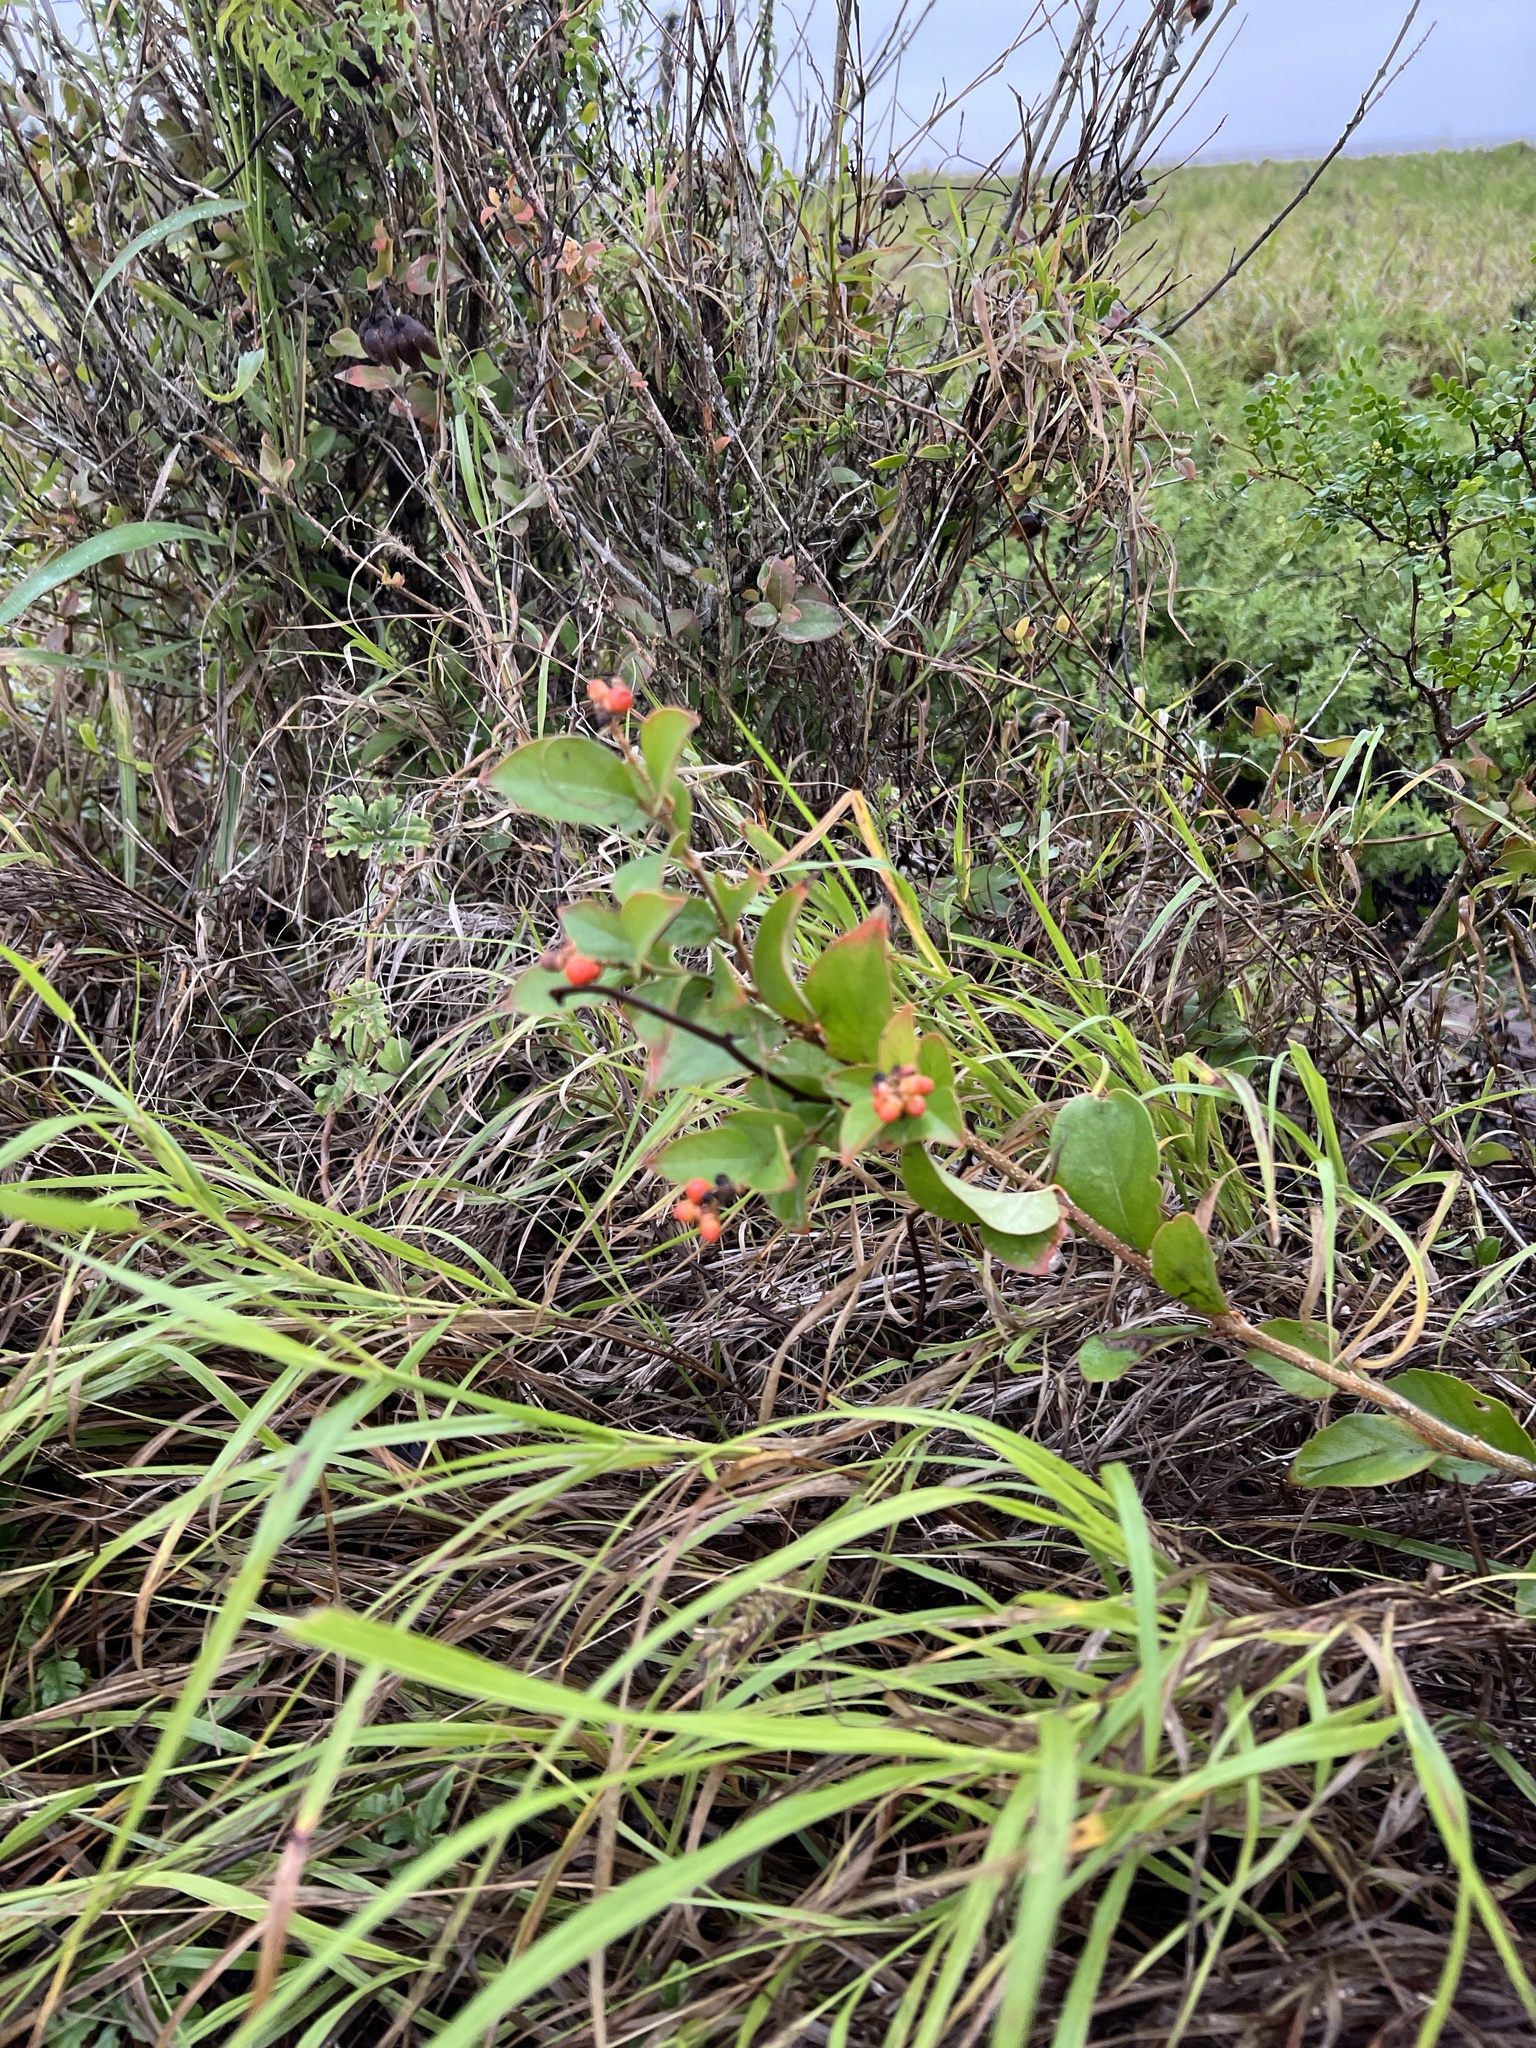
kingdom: Plantae
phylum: Tracheophyta
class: Magnoliopsida
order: Lamiales
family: Verbenaceae
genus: Citharexylum
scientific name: Citharexylum berlandieri
